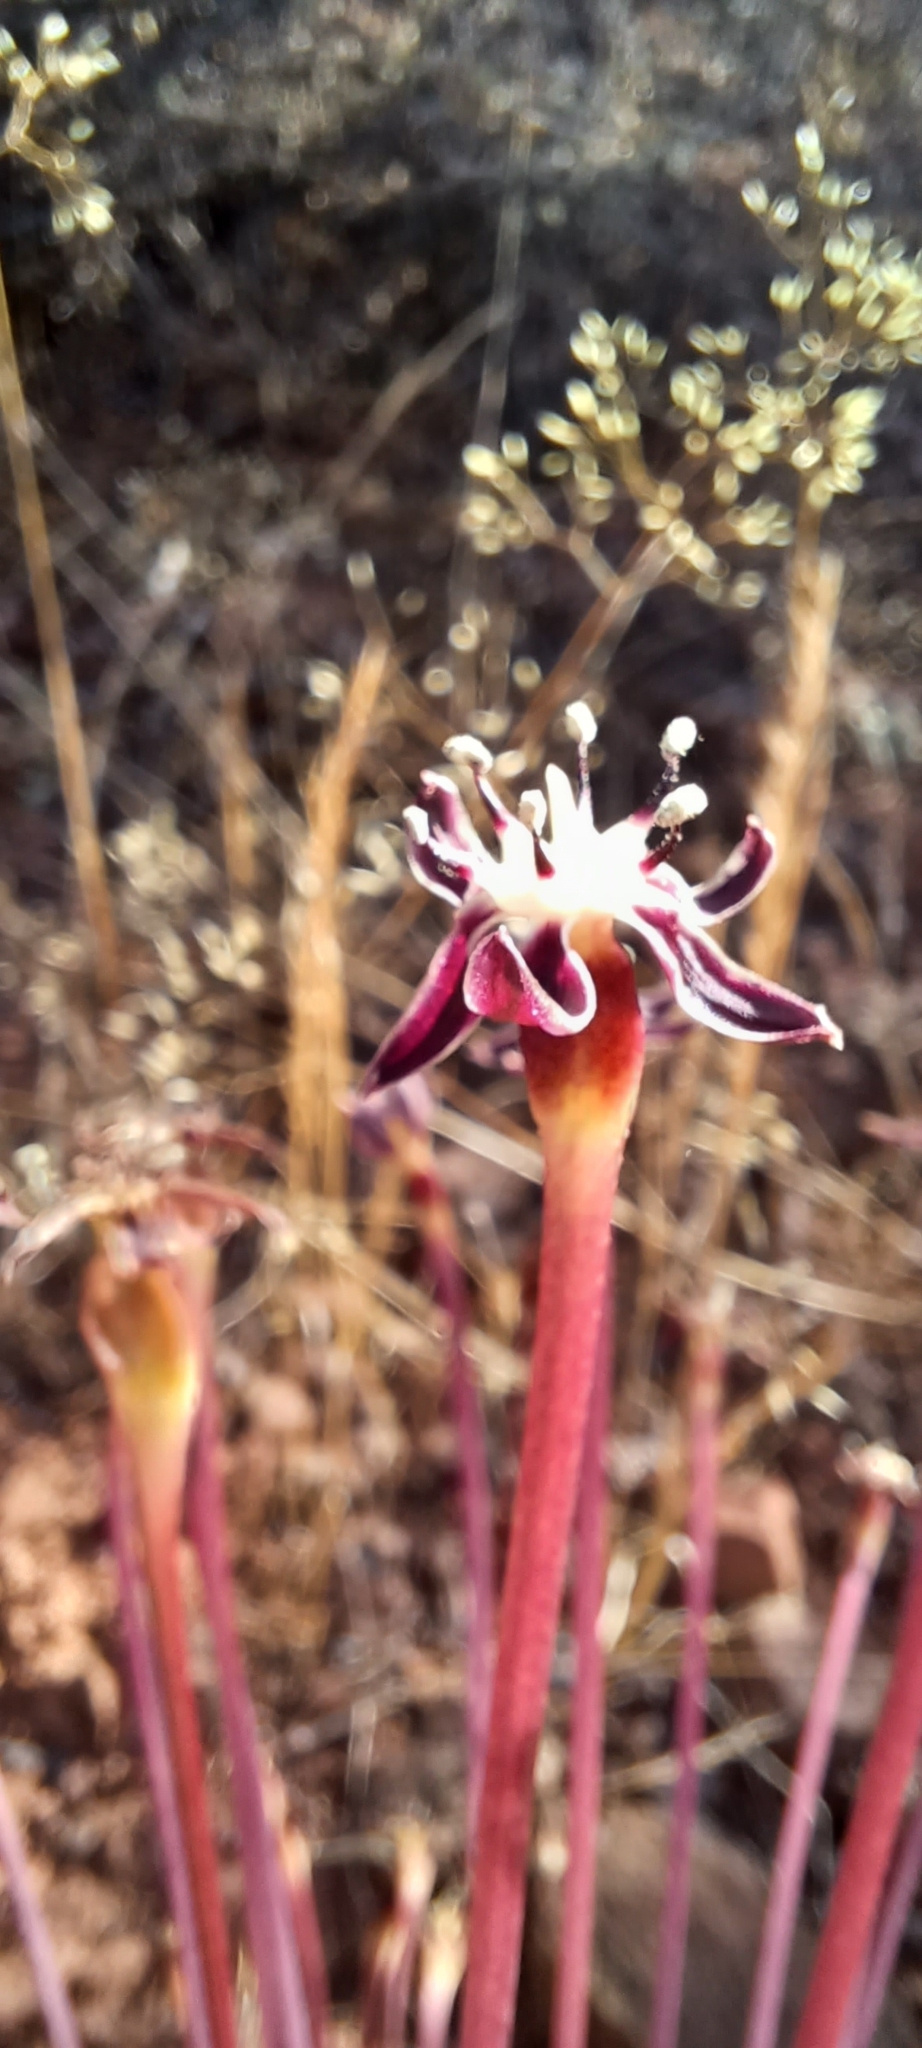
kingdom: Plantae
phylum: Tracheophyta
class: Liliopsida
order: Asparagales
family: Amaryllidaceae
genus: Crossyne
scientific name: Crossyne guttata
